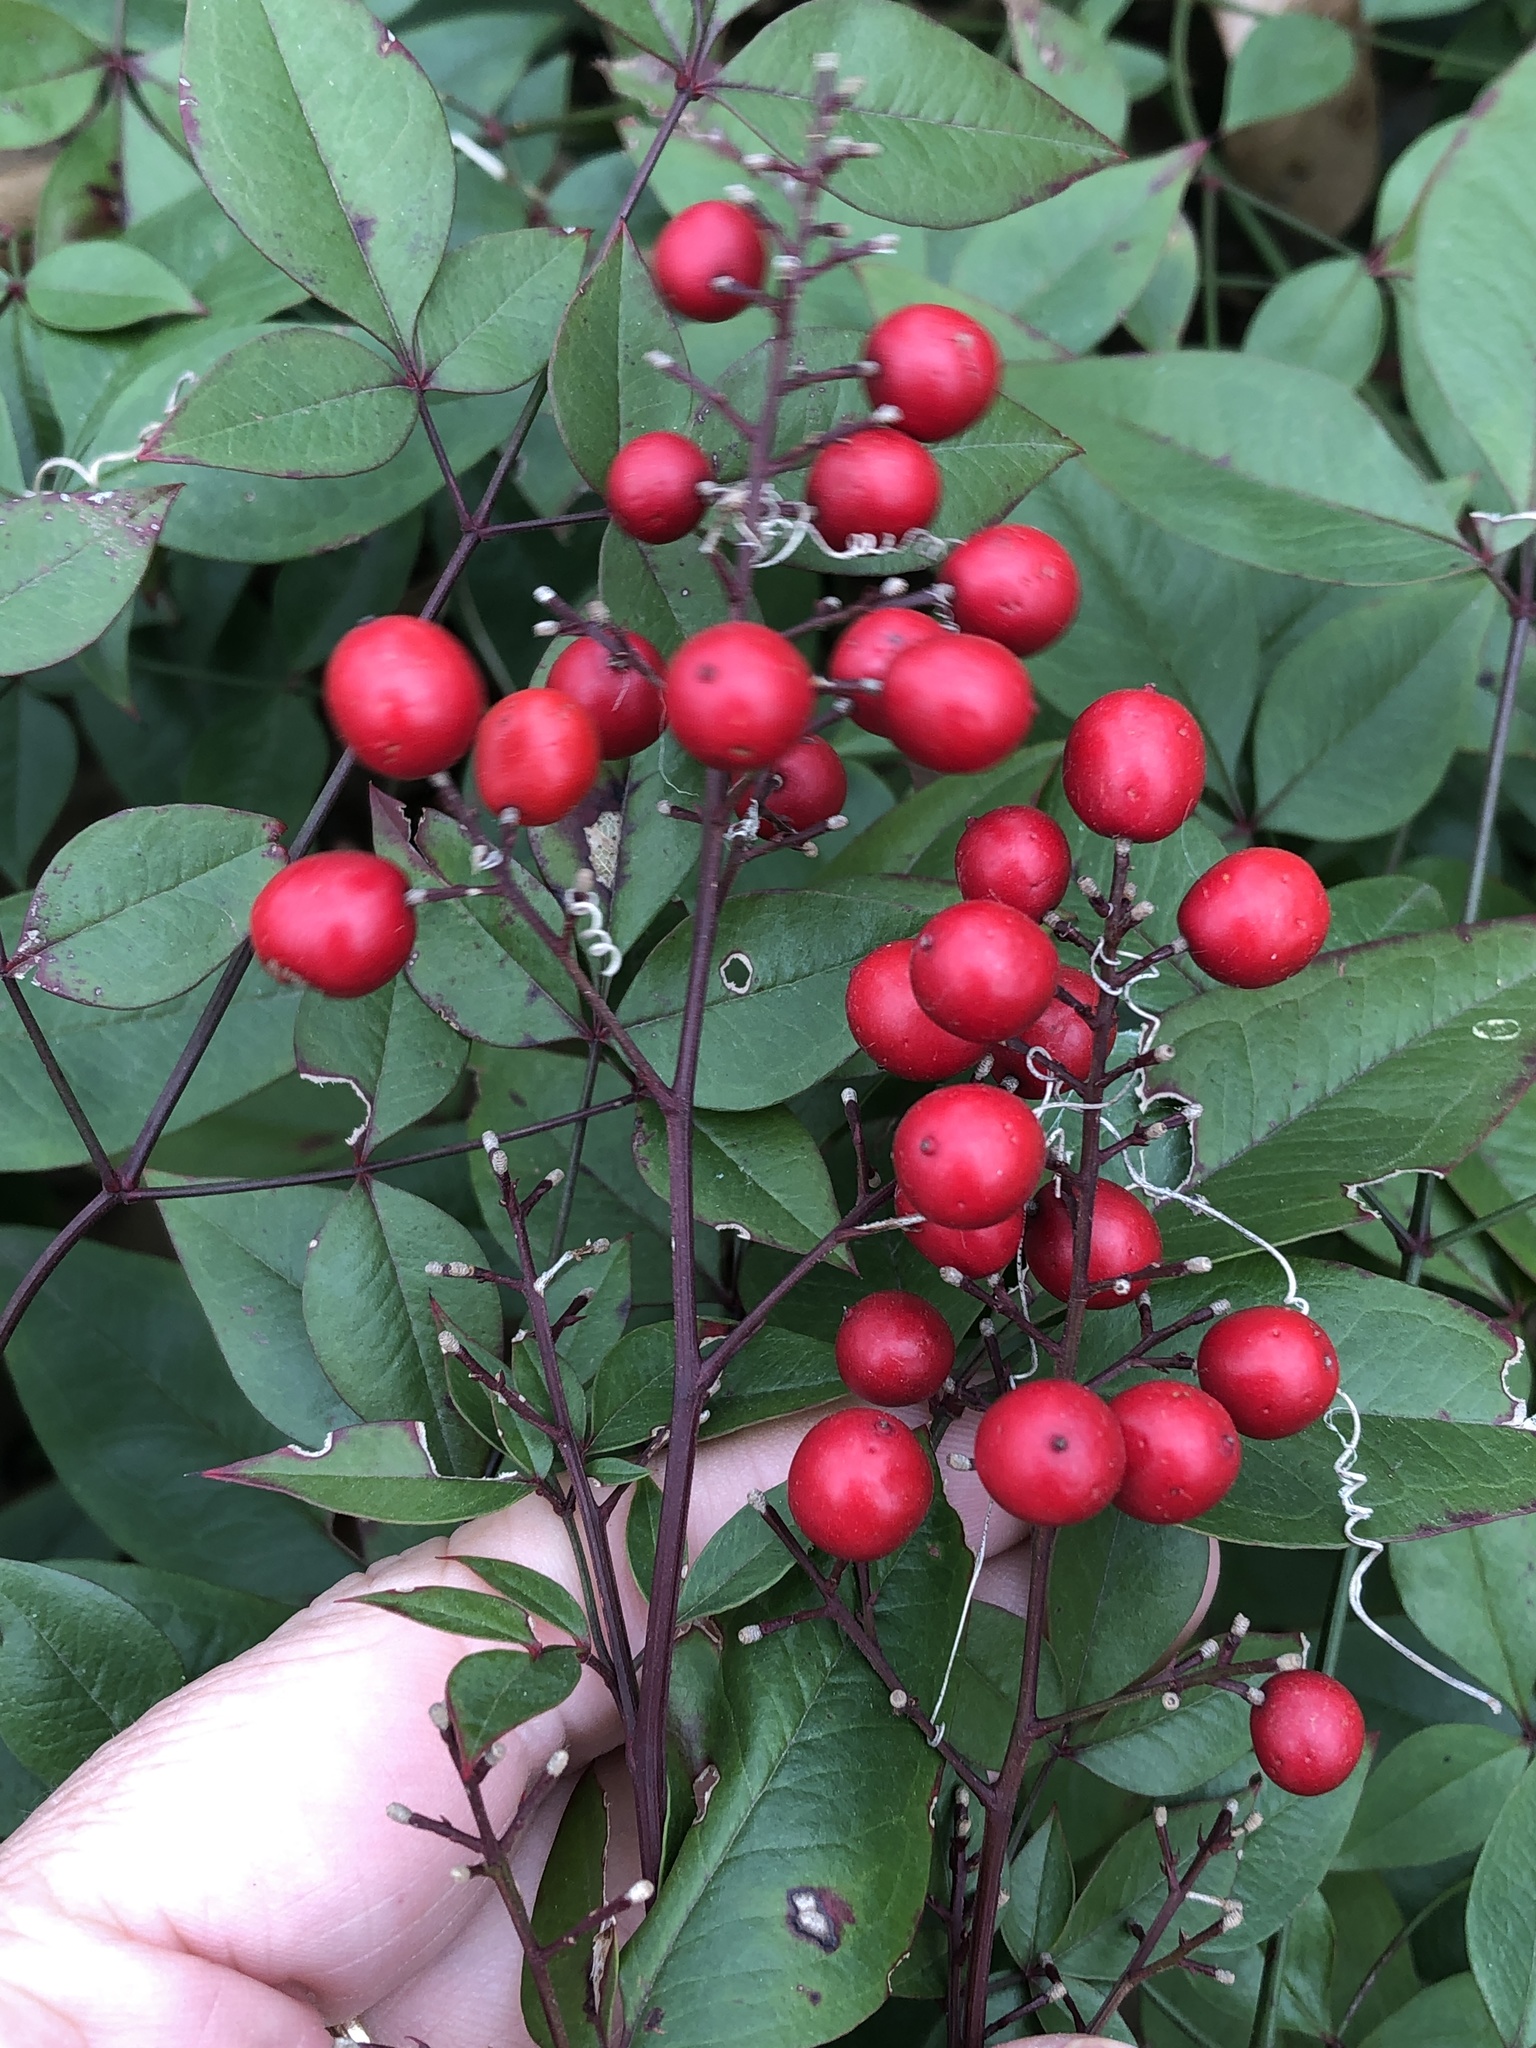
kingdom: Plantae
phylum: Tracheophyta
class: Magnoliopsida
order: Ranunculales
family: Berberidaceae
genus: Nandina
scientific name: Nandina domestica
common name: Sacred bamboo
